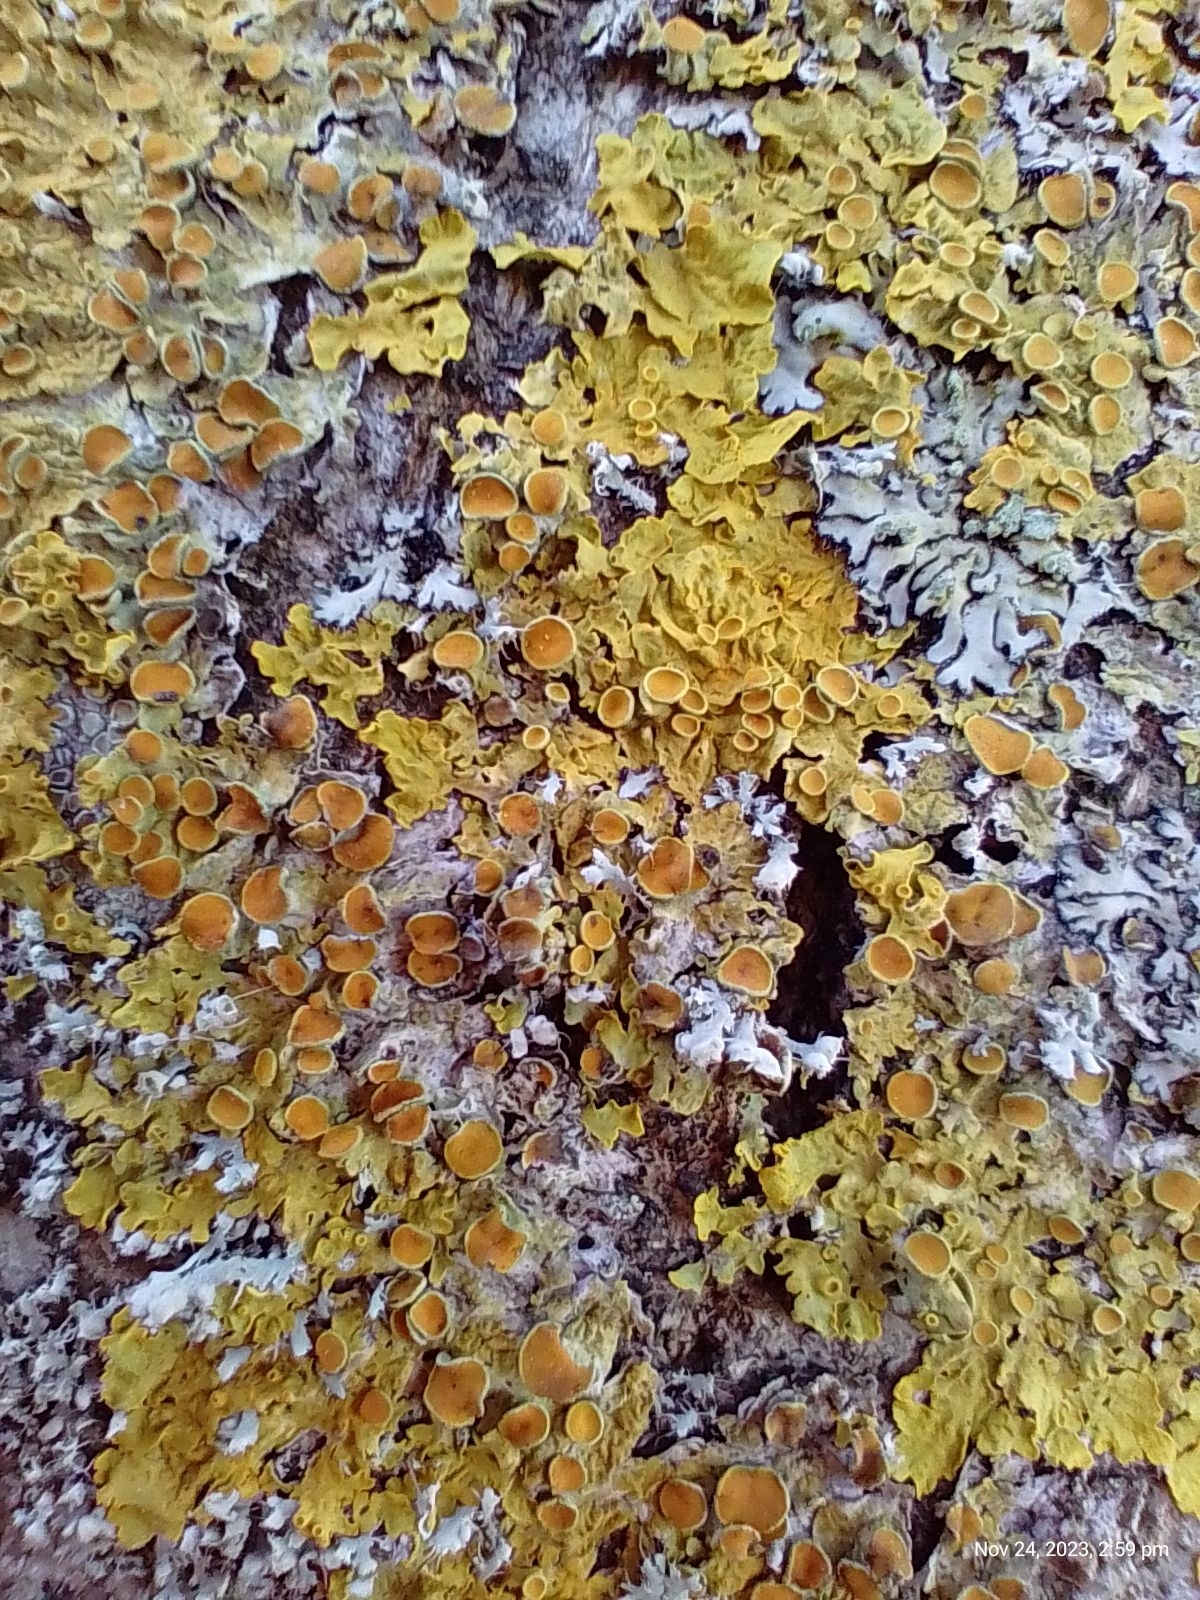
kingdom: Fungi
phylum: Ascomycota
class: Lecanoromycetes
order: Teloschistales
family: Teloschistaceae
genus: Xanthoria
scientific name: Xanthoria parietina
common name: Common orange lichen
